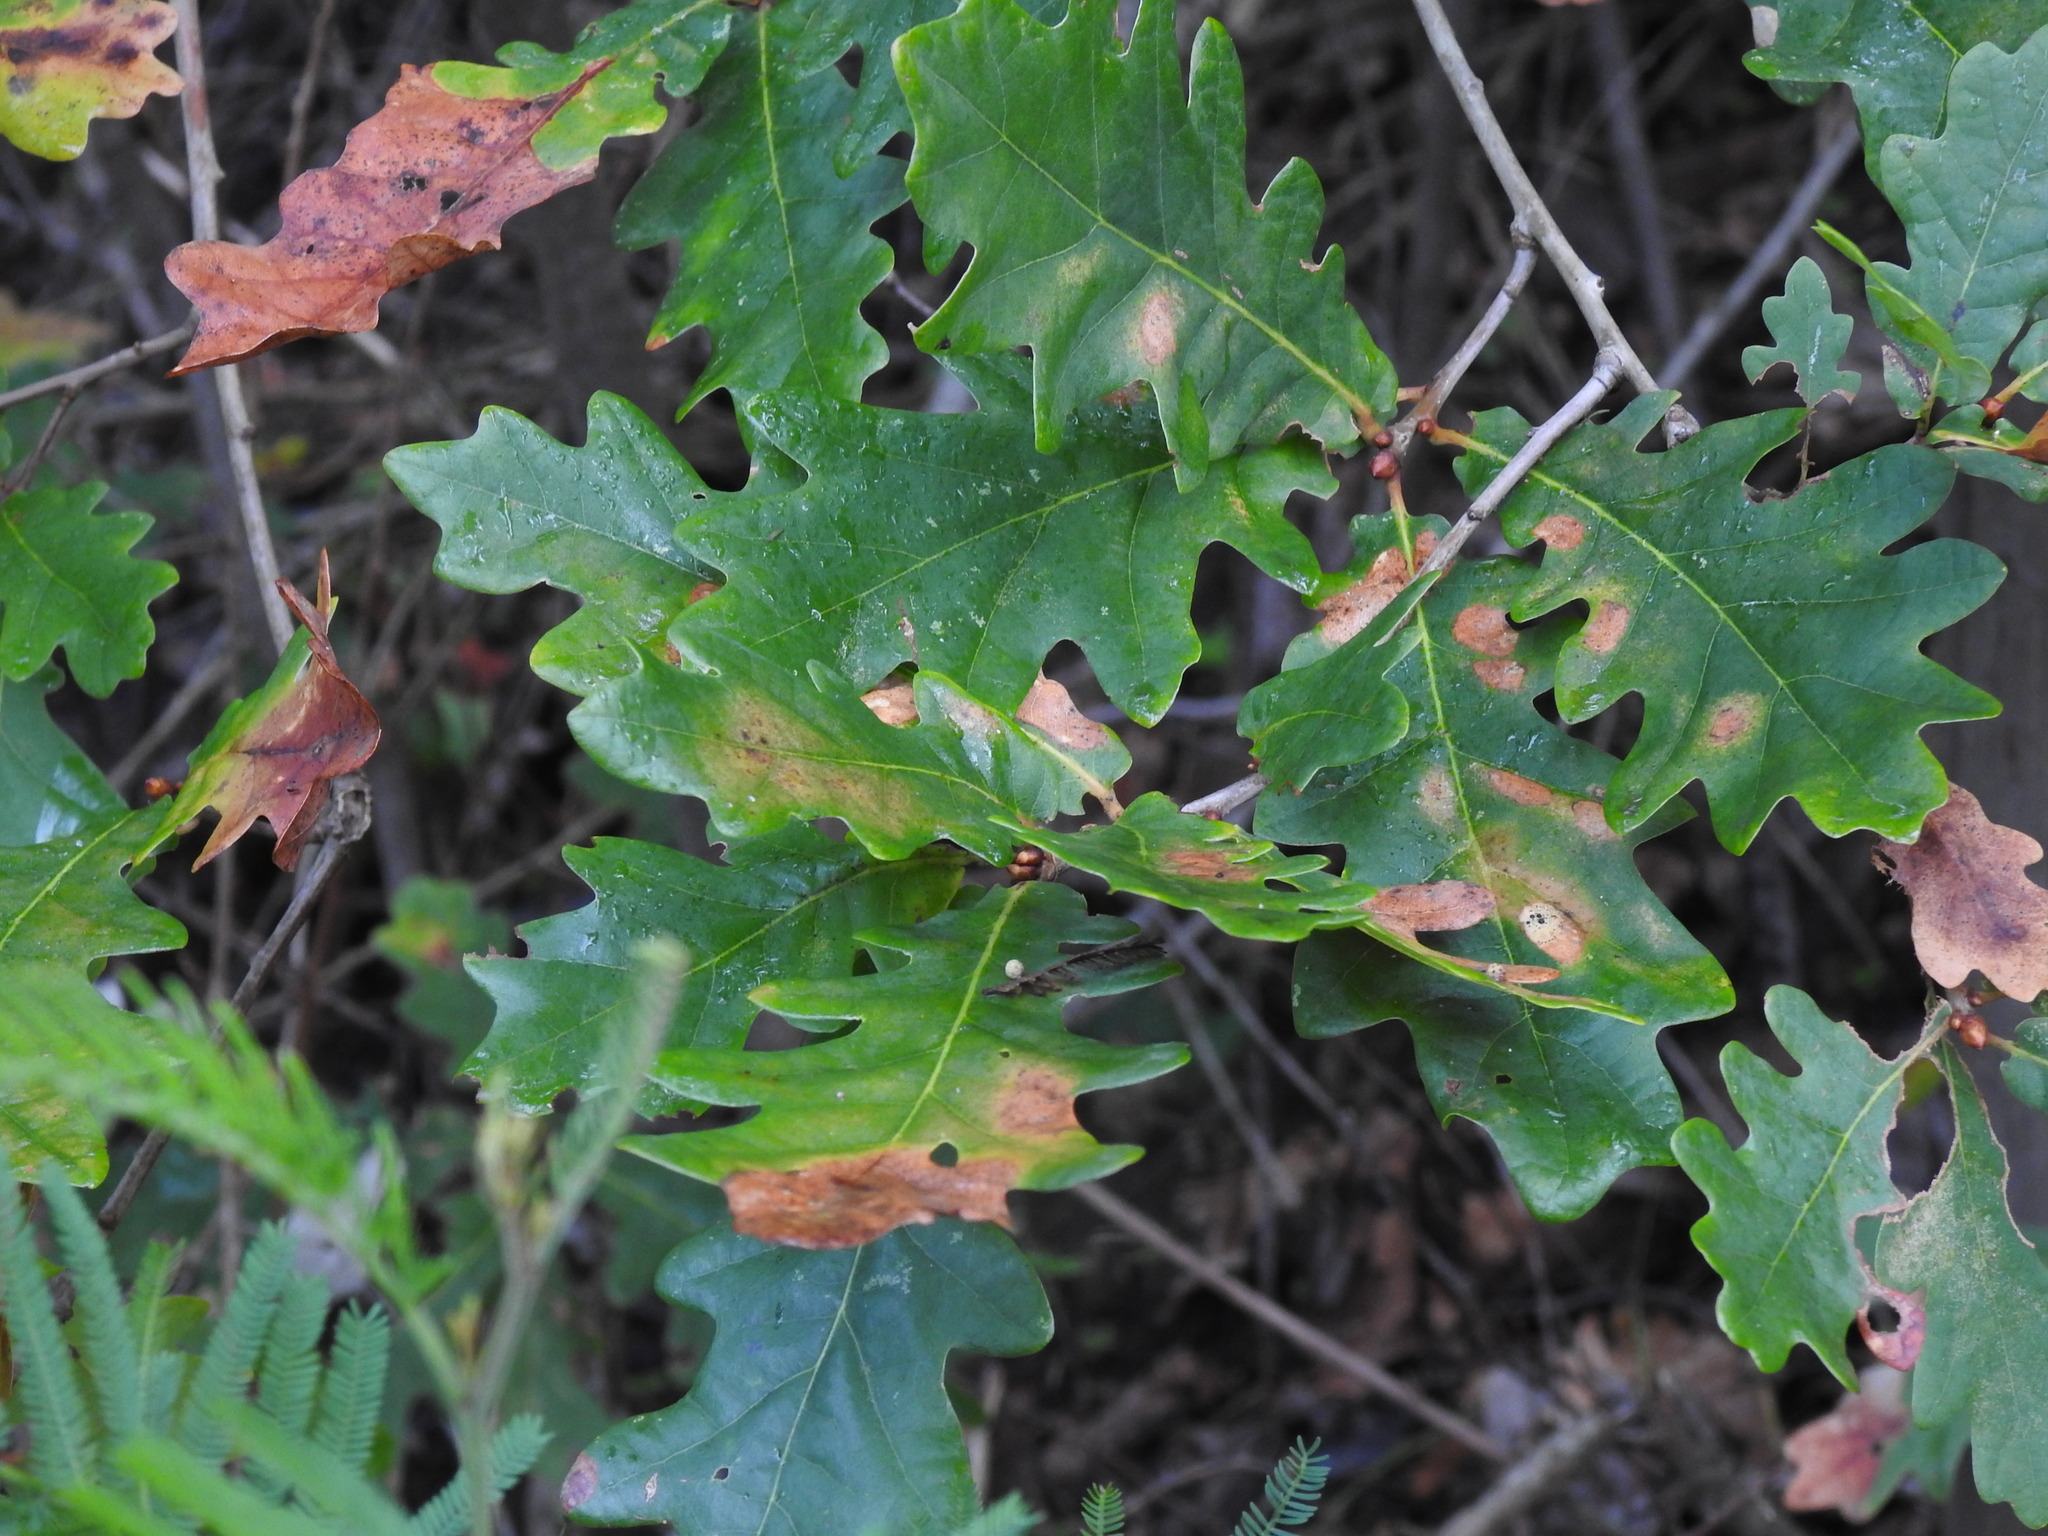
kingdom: Plantae
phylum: Tracheophyta
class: Magnoliopsida
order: Fagales
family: Fagaceae
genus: Quercus
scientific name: Quercus orocantabrica
